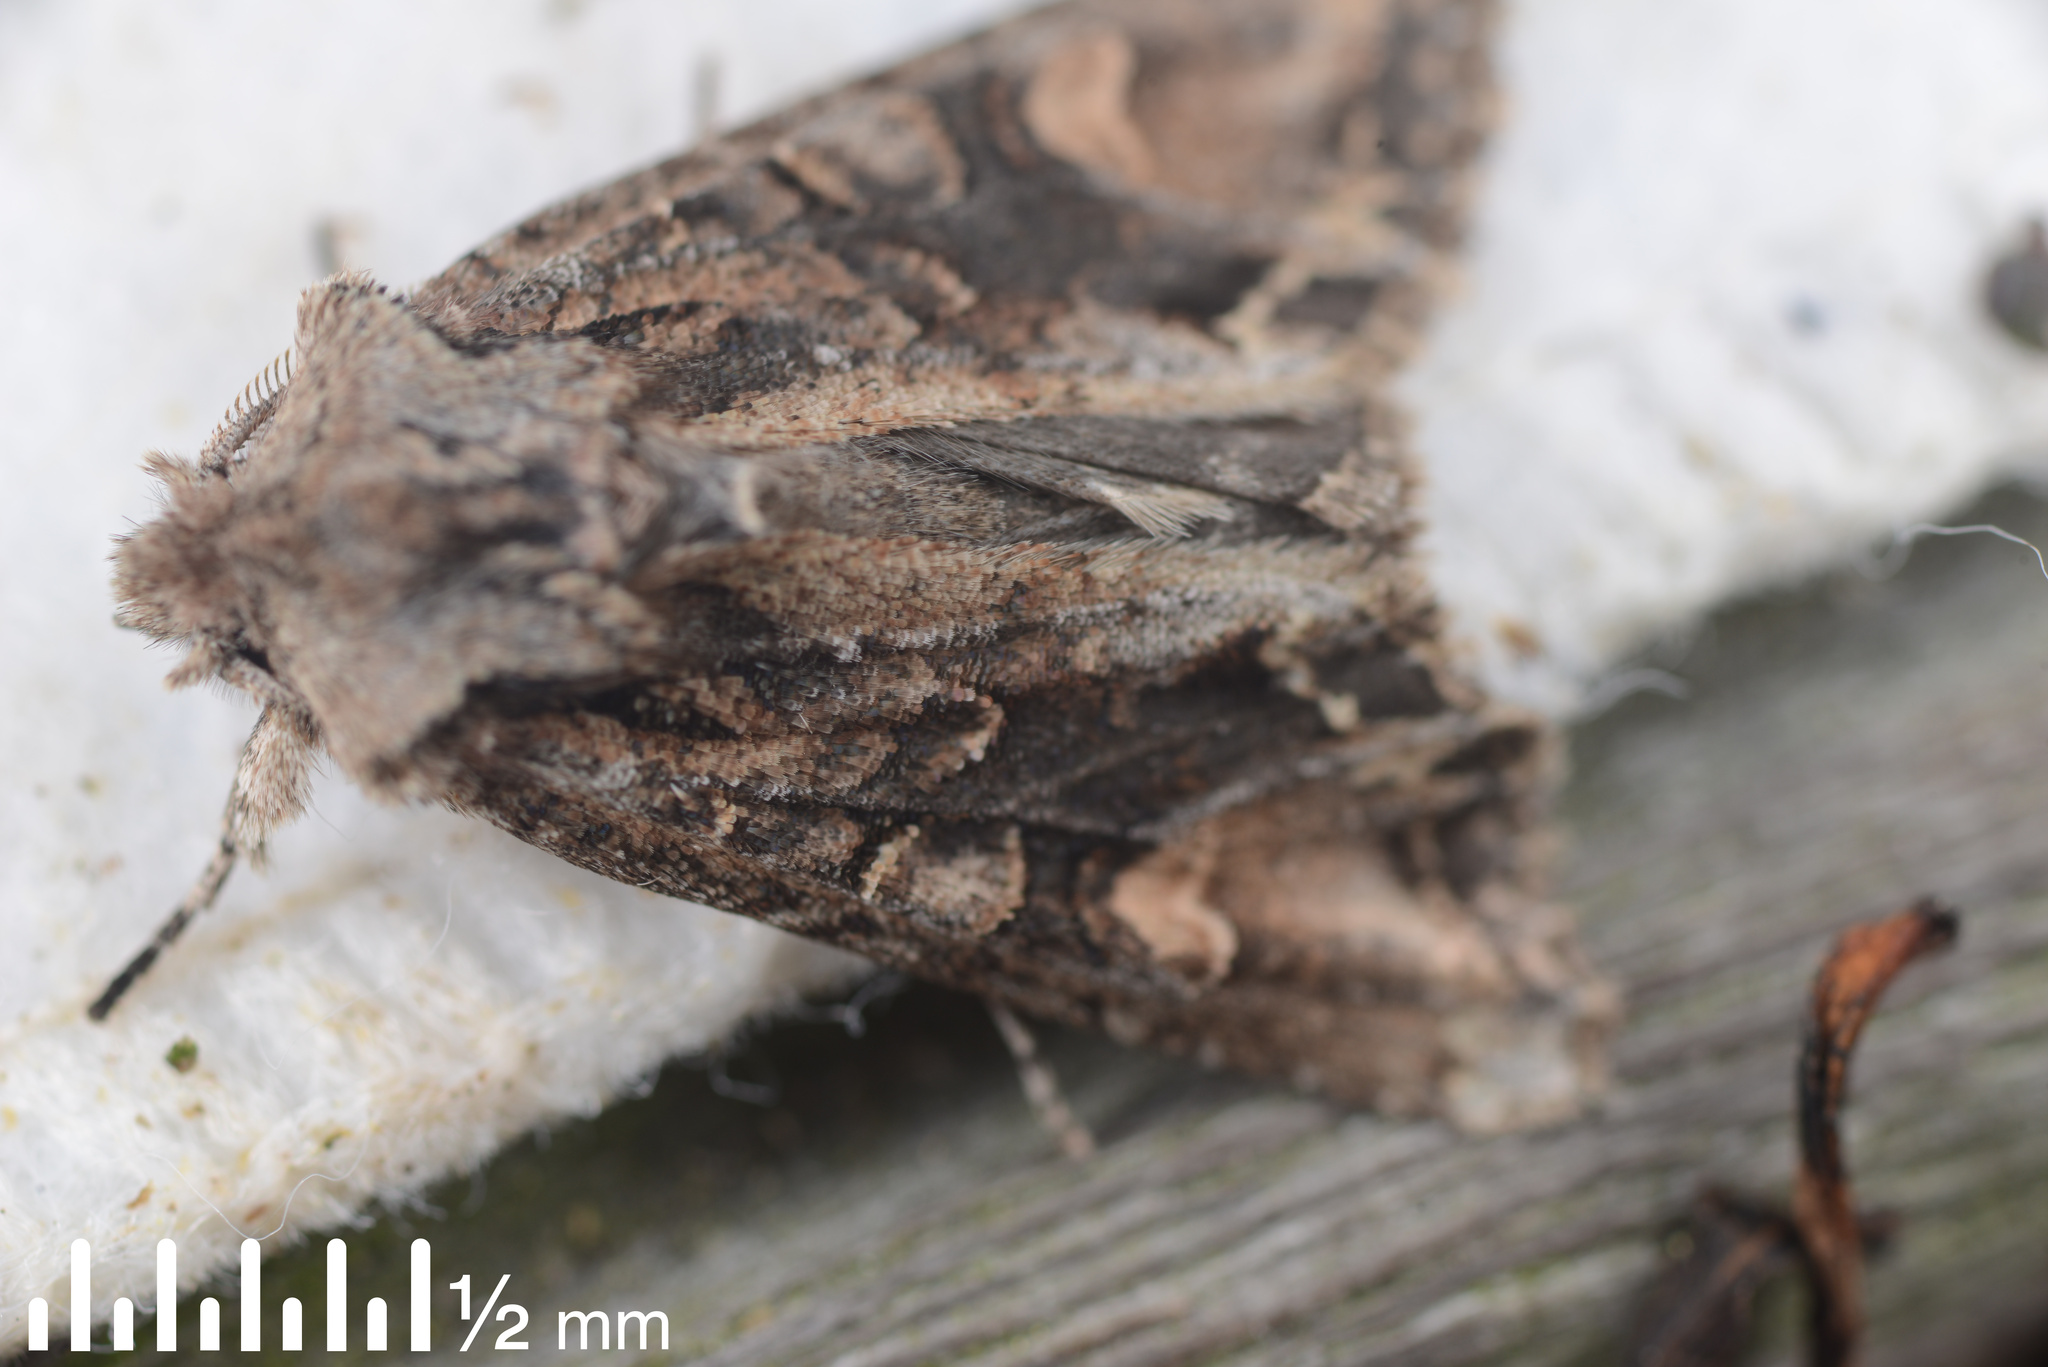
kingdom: Animalia
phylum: Arthropoda
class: Insecta
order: Lepidoptera
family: Noctuidae
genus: Ichneutica
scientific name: Ichneutica insignis
